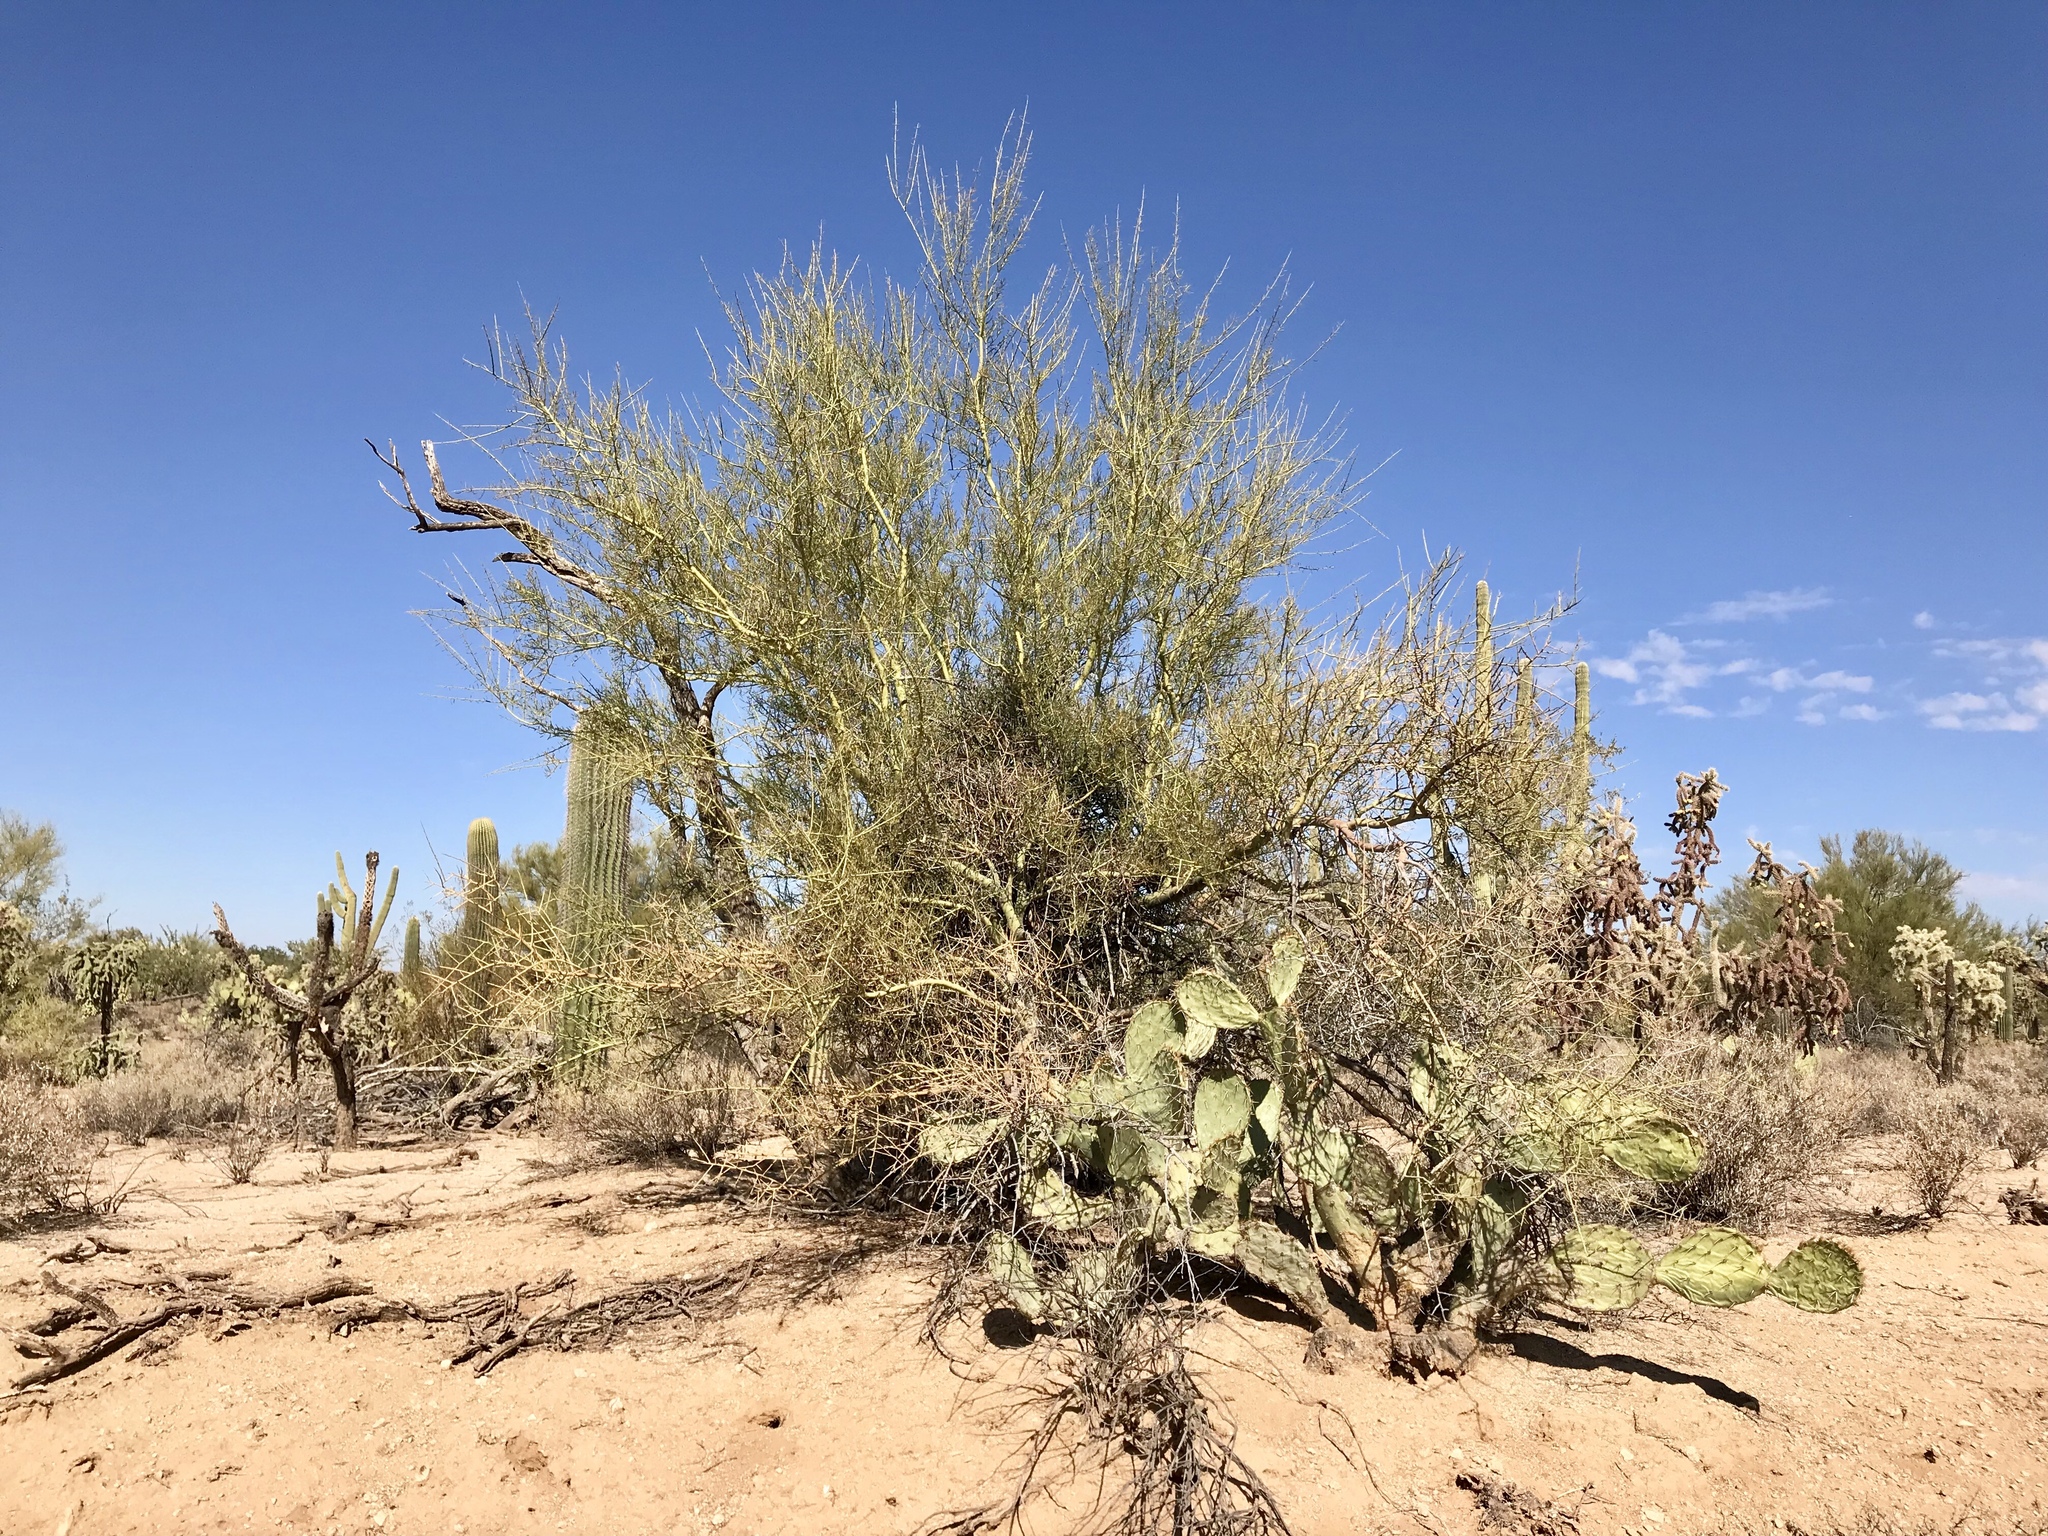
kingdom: Plantae
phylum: Tracheophyta
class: Magnoliopsida
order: Fabales
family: Fabaceae
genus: Parkinsonia
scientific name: Parkinsonia microphylla
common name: Yellow paloverde
